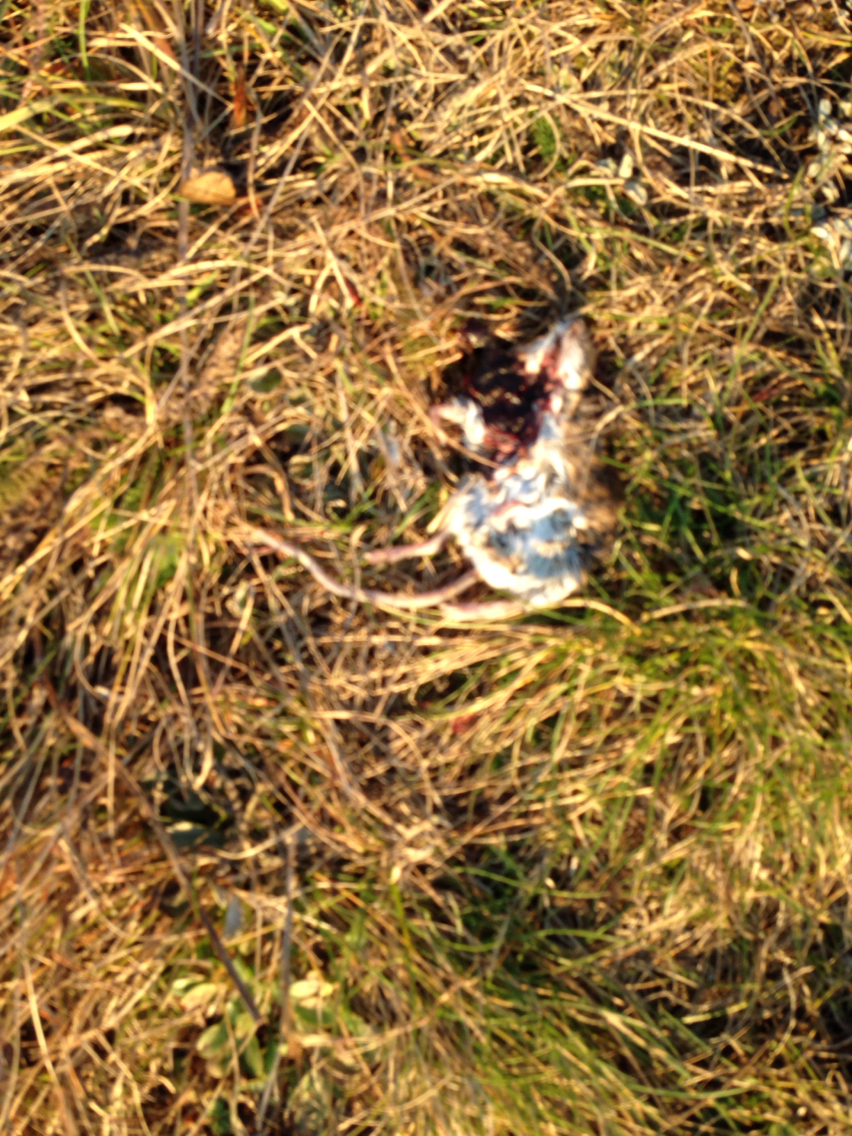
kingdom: Animalia
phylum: Chordata
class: Mammalia
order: Rodentia
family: Cricetidae
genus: Peromyscus
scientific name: Peromyscus
